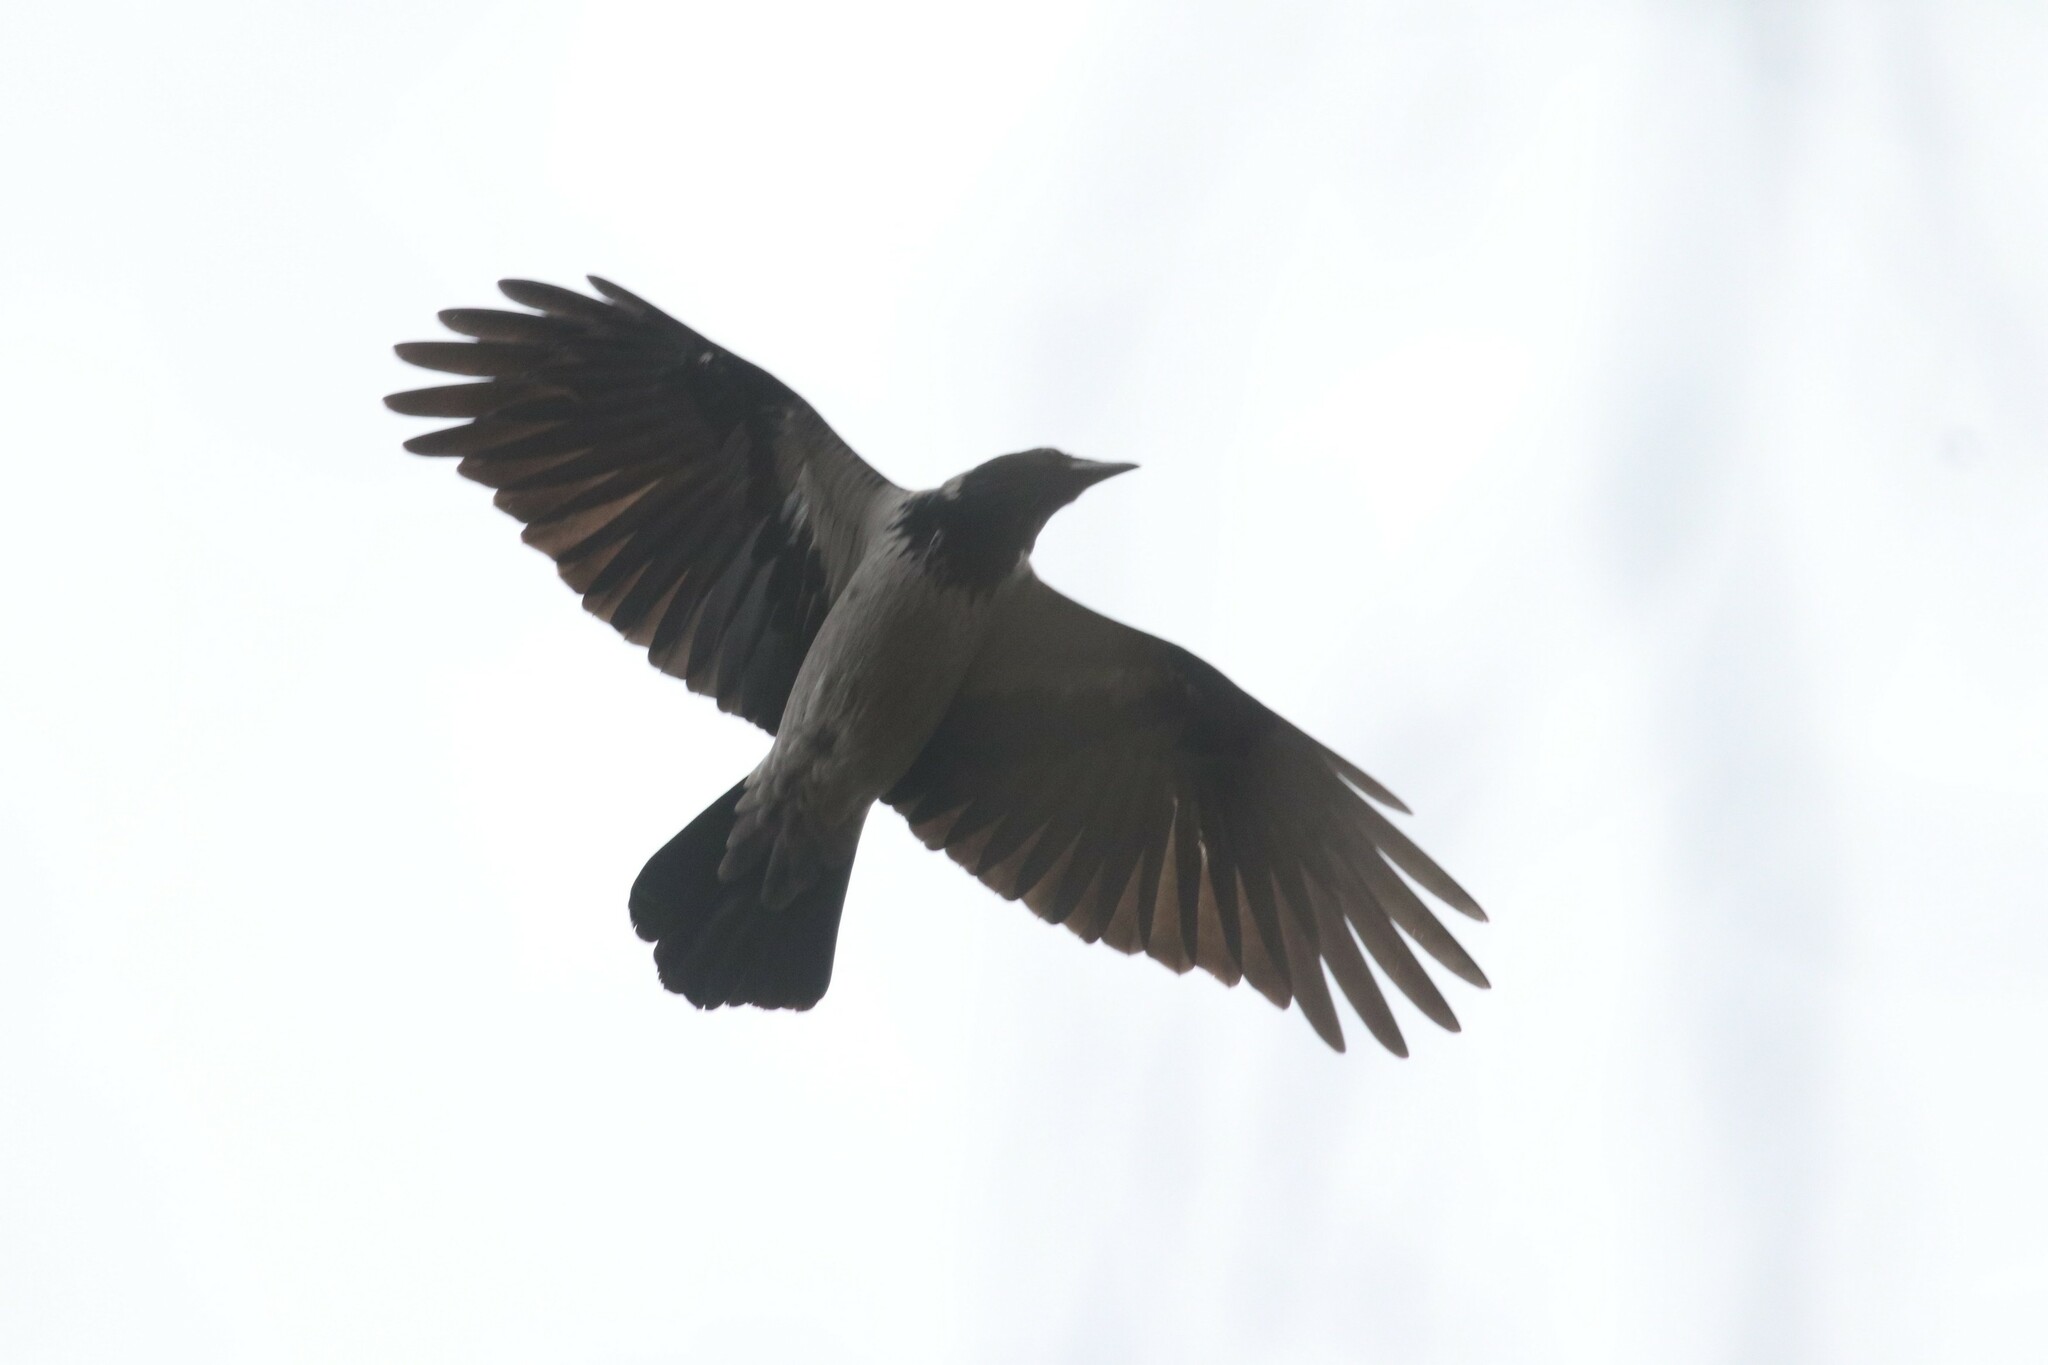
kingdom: Animalia
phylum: Chordata
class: Aves
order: Passeriformes
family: Corvidae
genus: Corvus
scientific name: Corvus cornix
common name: Hooded crow
